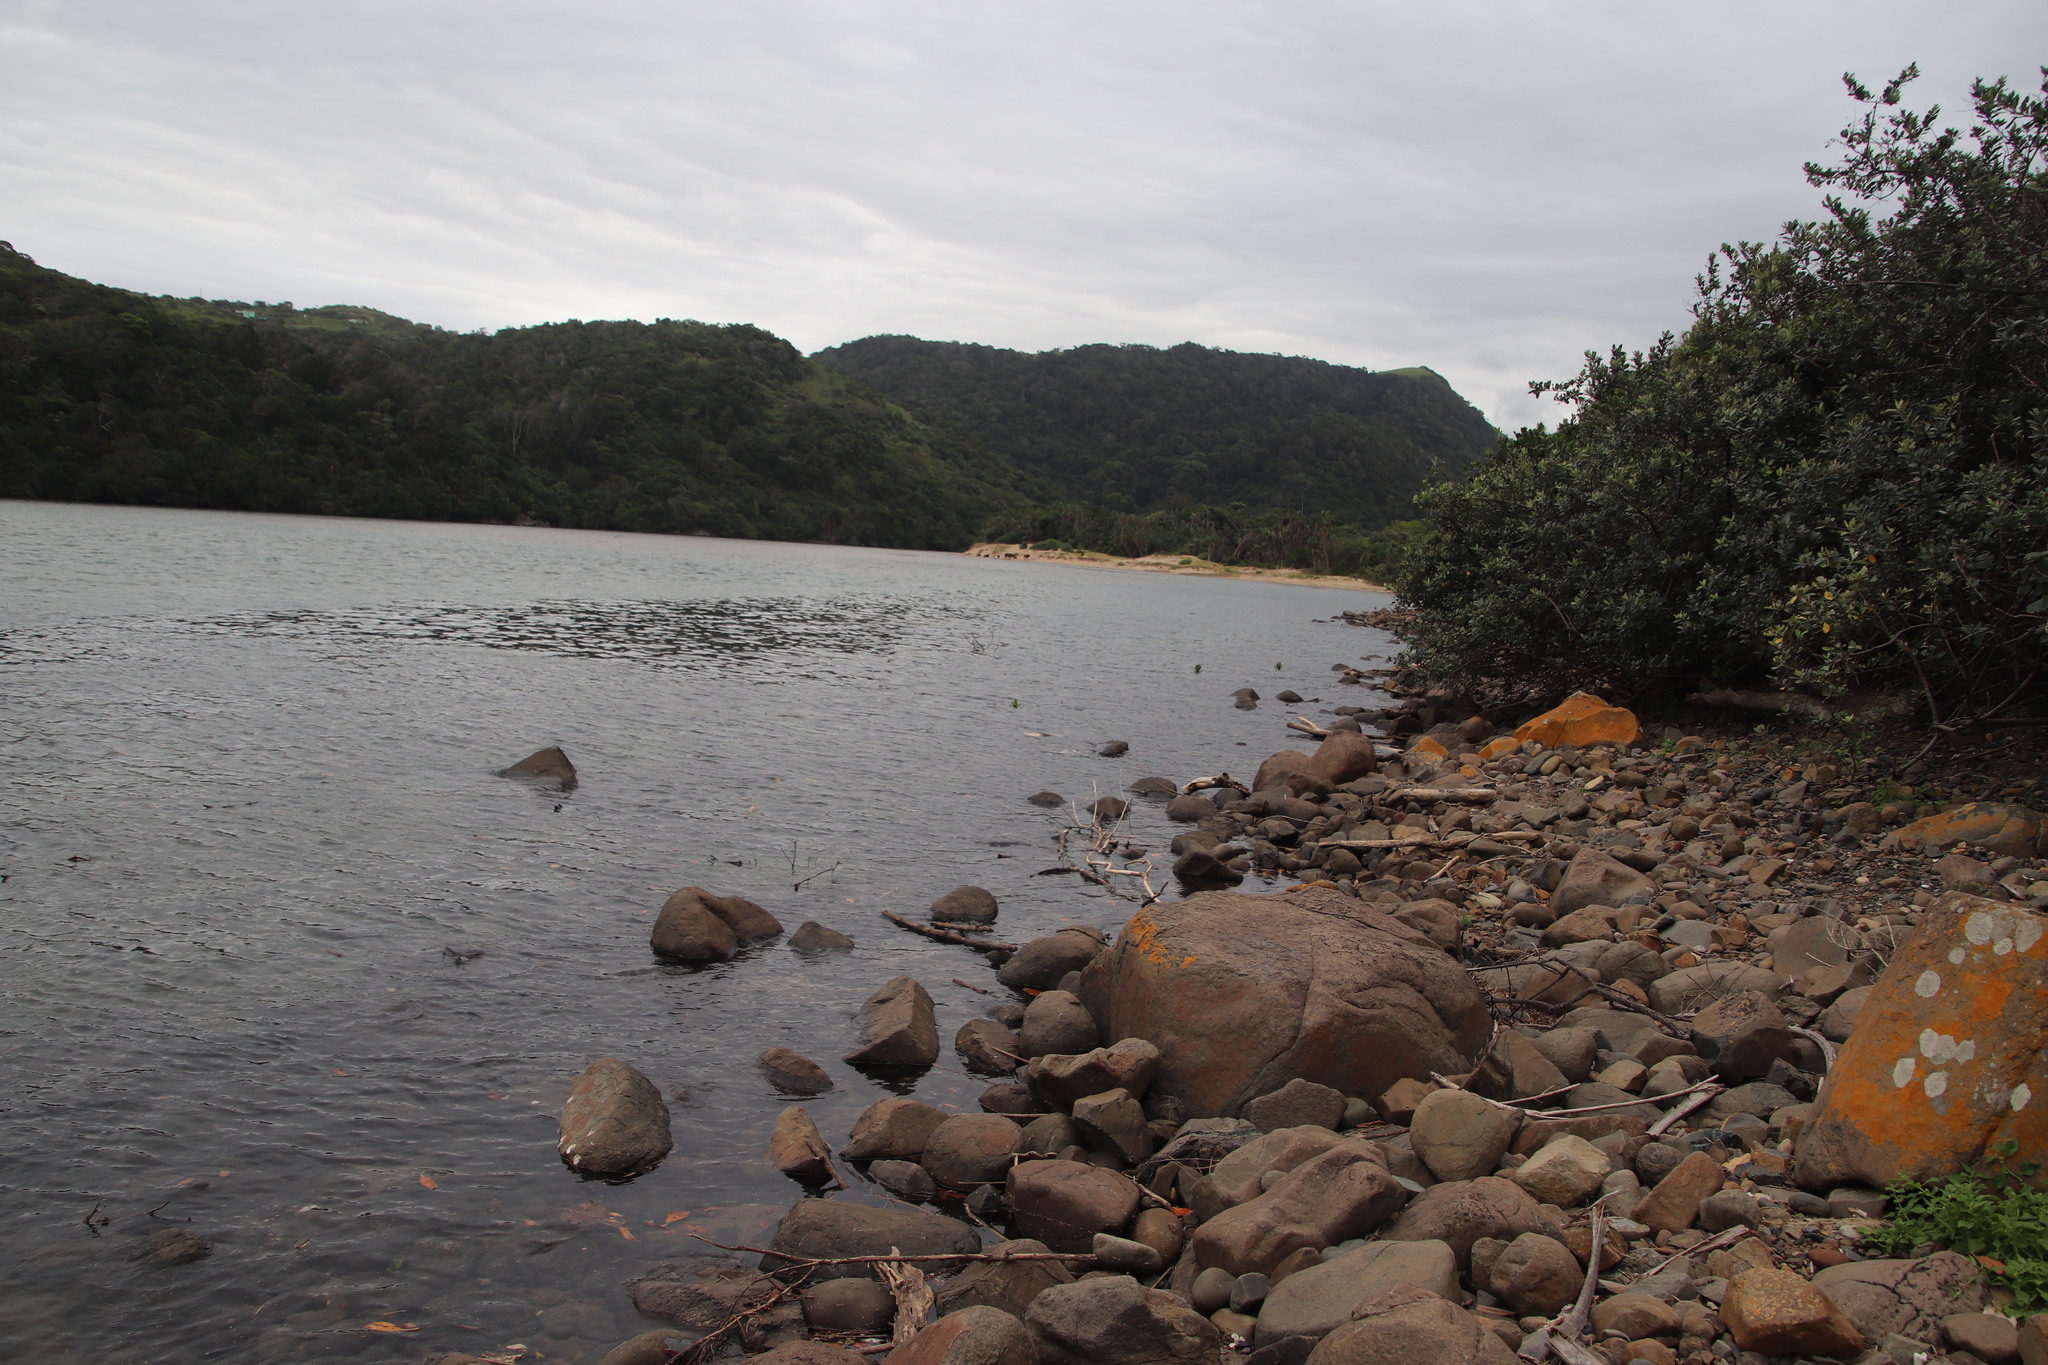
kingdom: Plantae
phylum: Tracheophyta
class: Magnoliopsida
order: Lamiales
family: Acanthaceae
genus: Avicennia
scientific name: Avicennia marina
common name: Gray mangrove
